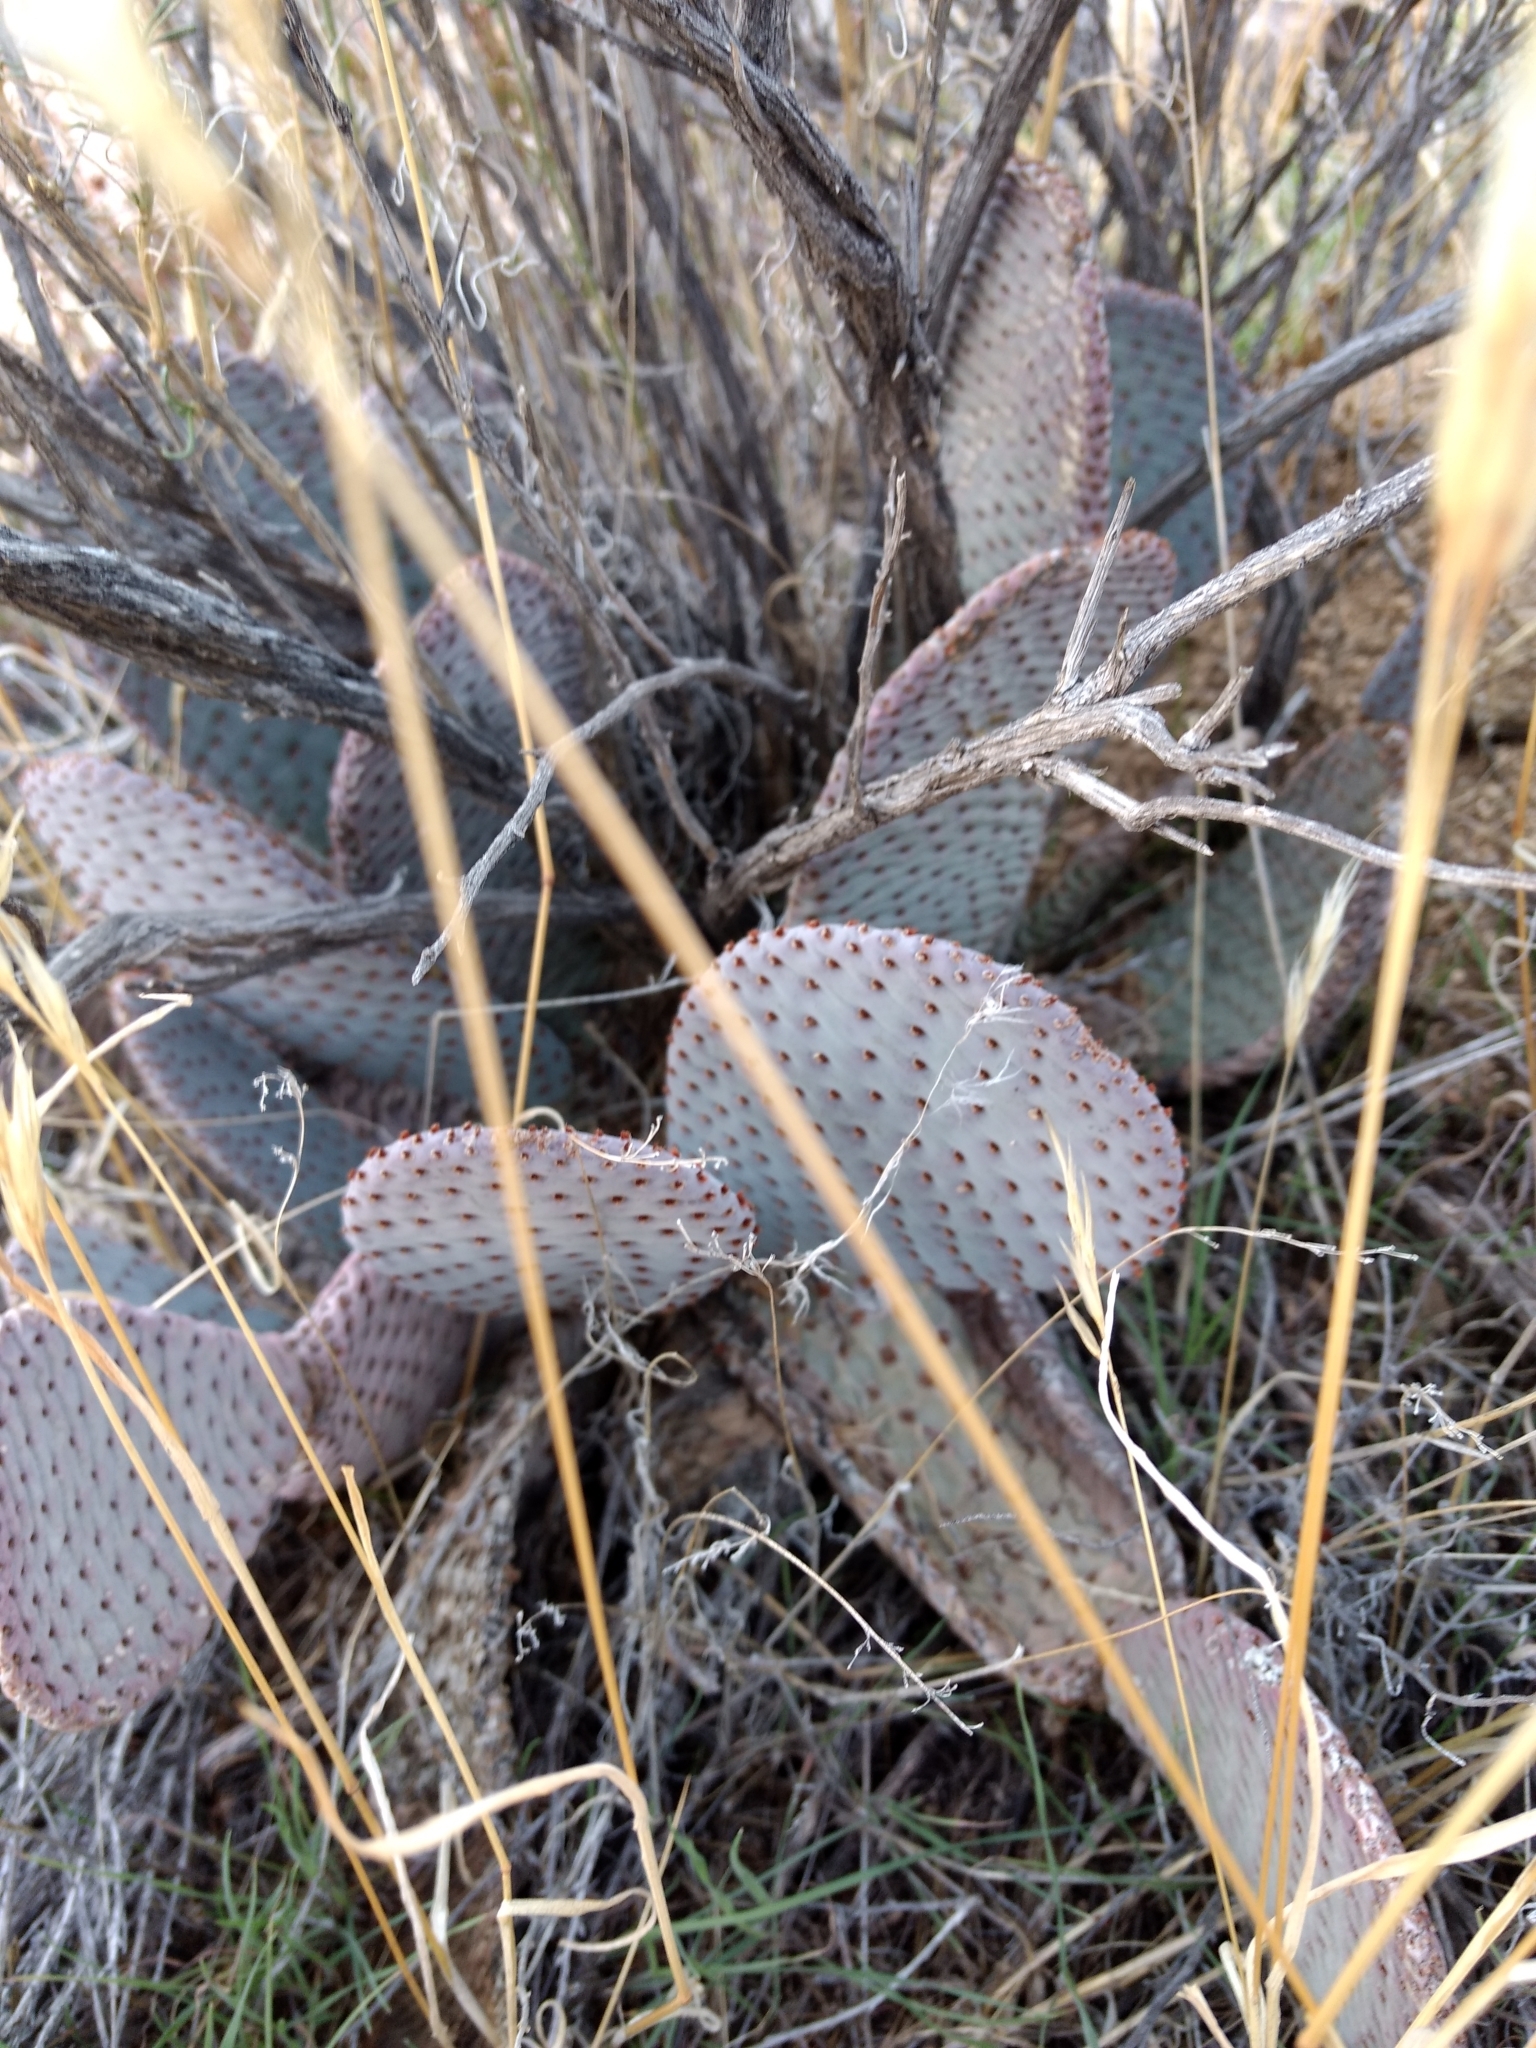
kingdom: Plantae
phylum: Tracheophyta
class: Magnoliopsida
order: Caryophyllales
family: Cactaceae
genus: Opuntia
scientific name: Opuntia basilaris
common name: Beavertail prickly-pear
